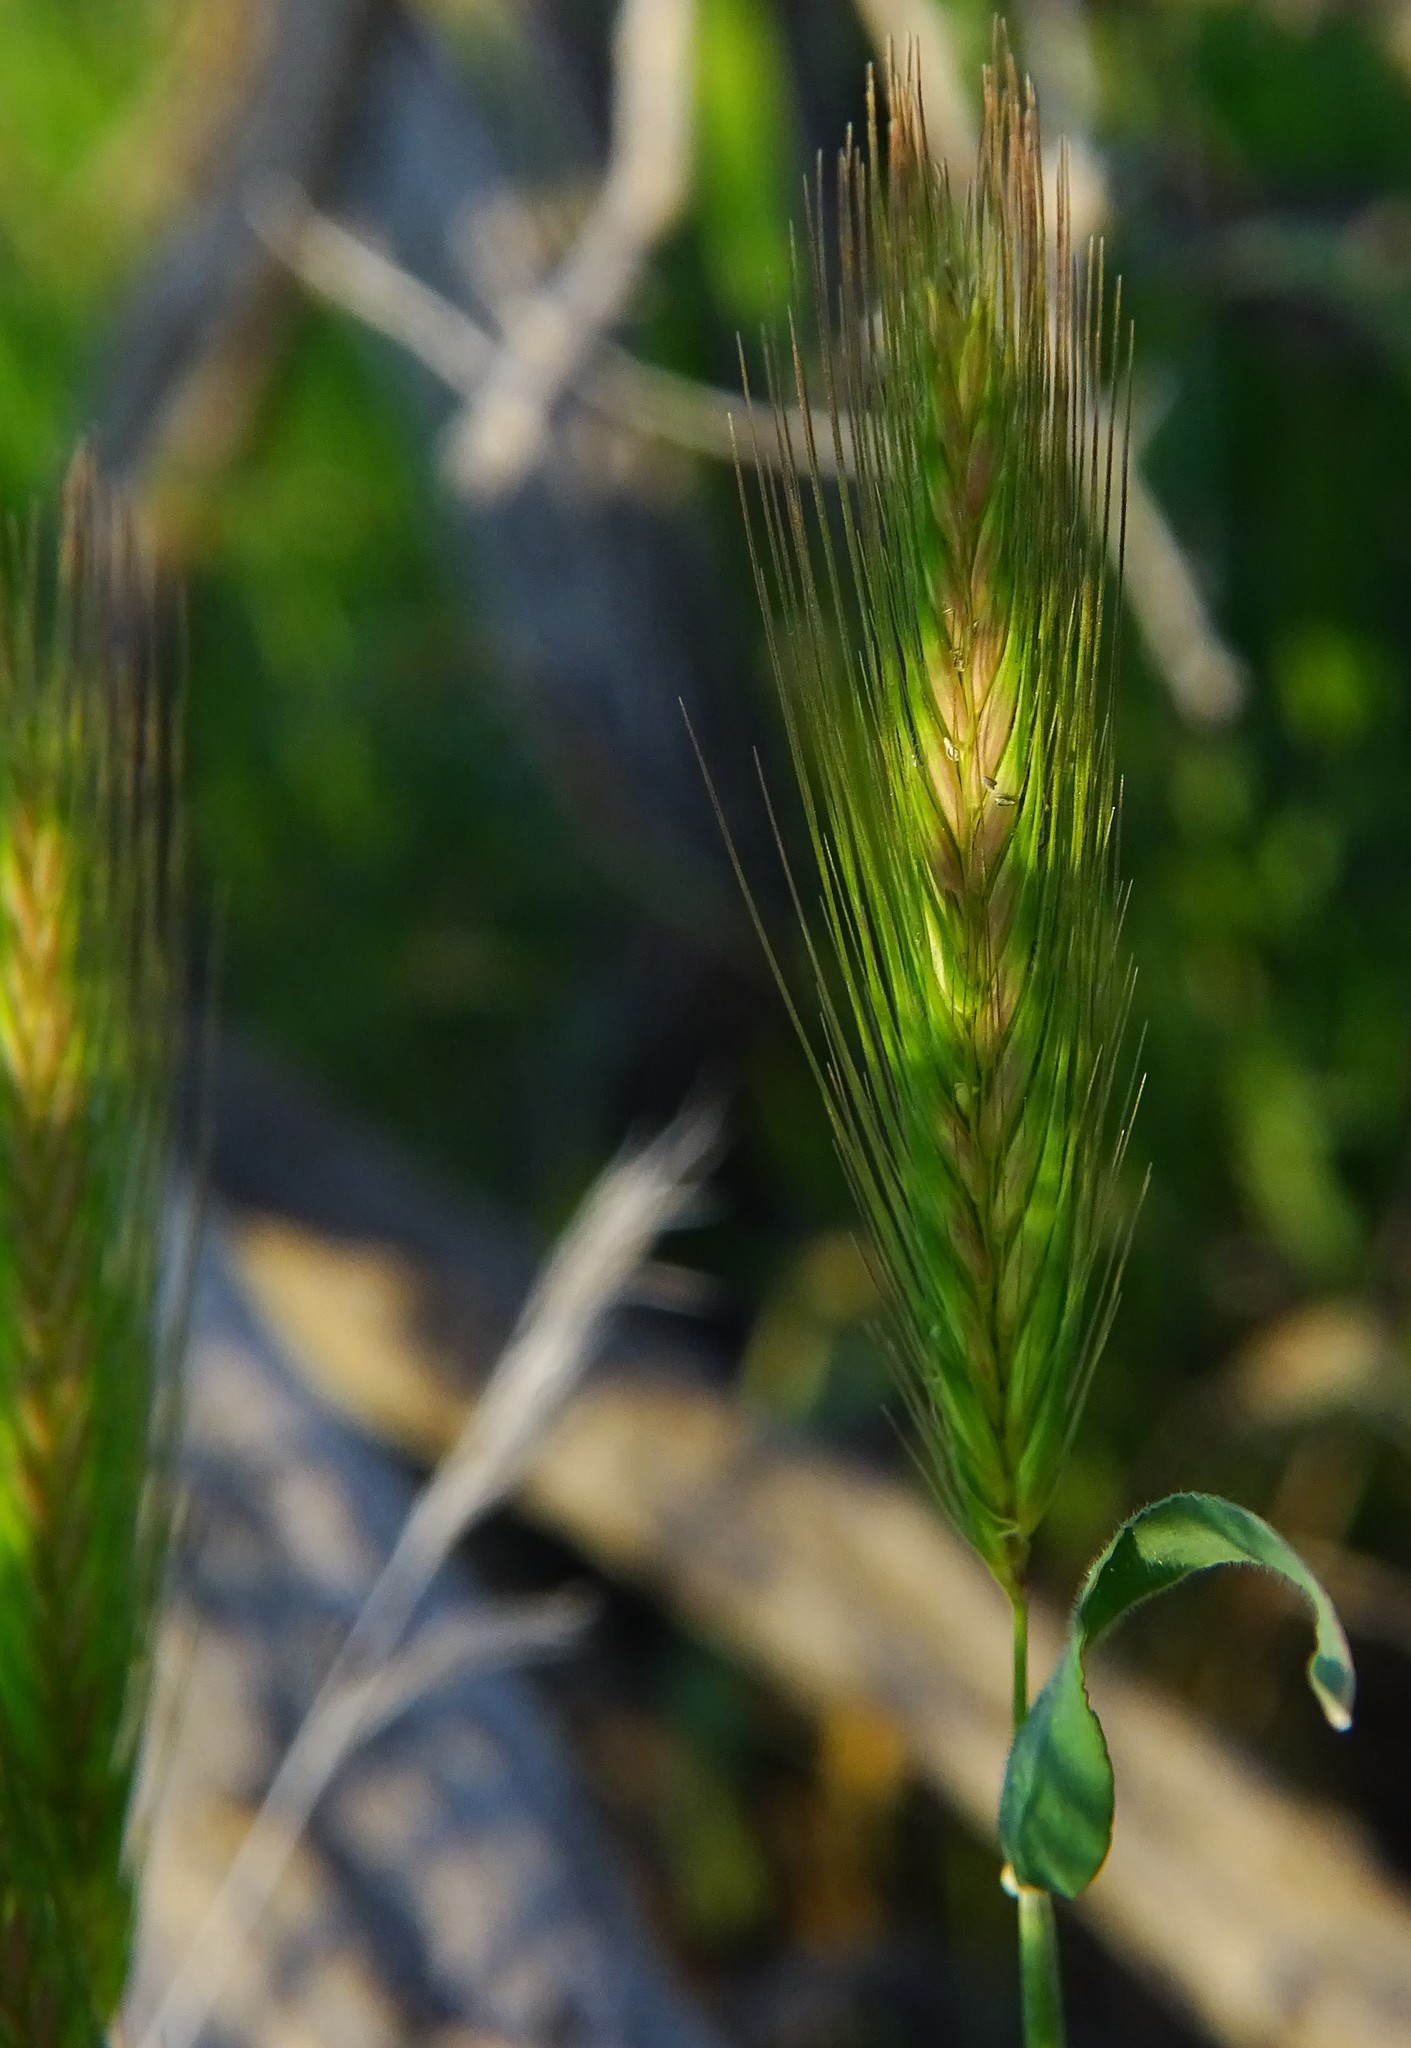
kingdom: Plantae
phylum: Tracheophyta
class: Liliopsida
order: Poales
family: Poaceae
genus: Hordeum
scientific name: Hordeum murinum
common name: Wall barley
